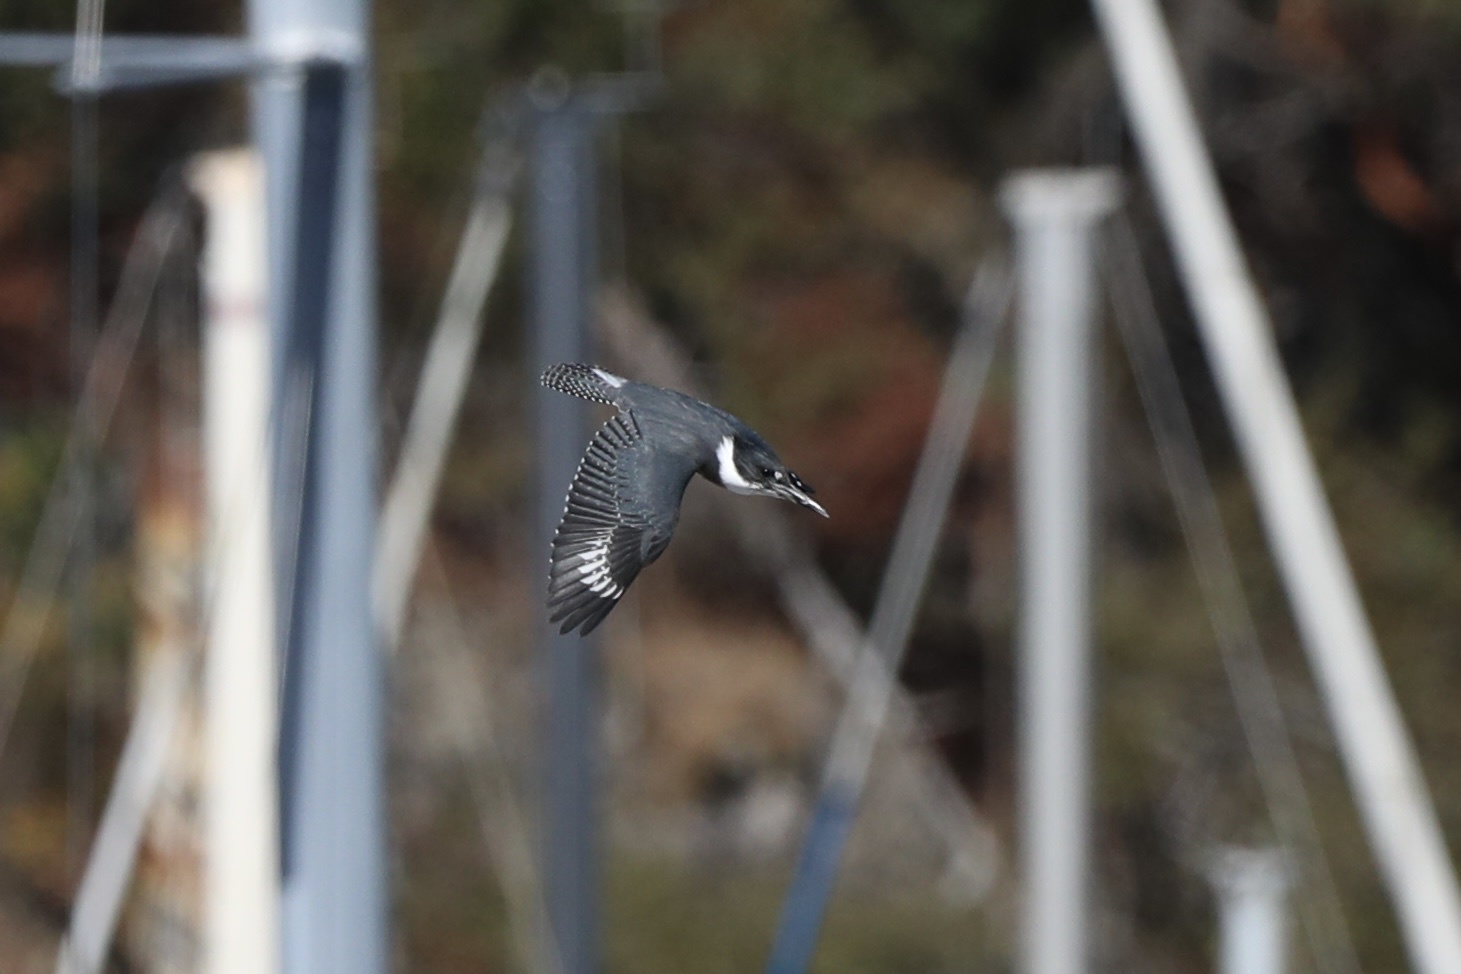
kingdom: Animalia
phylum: Chordata
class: Aves
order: Coraciiformes
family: Alcedinidae
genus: Megaceryle
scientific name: Megaceryle alcyon
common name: Belted kingfisher
